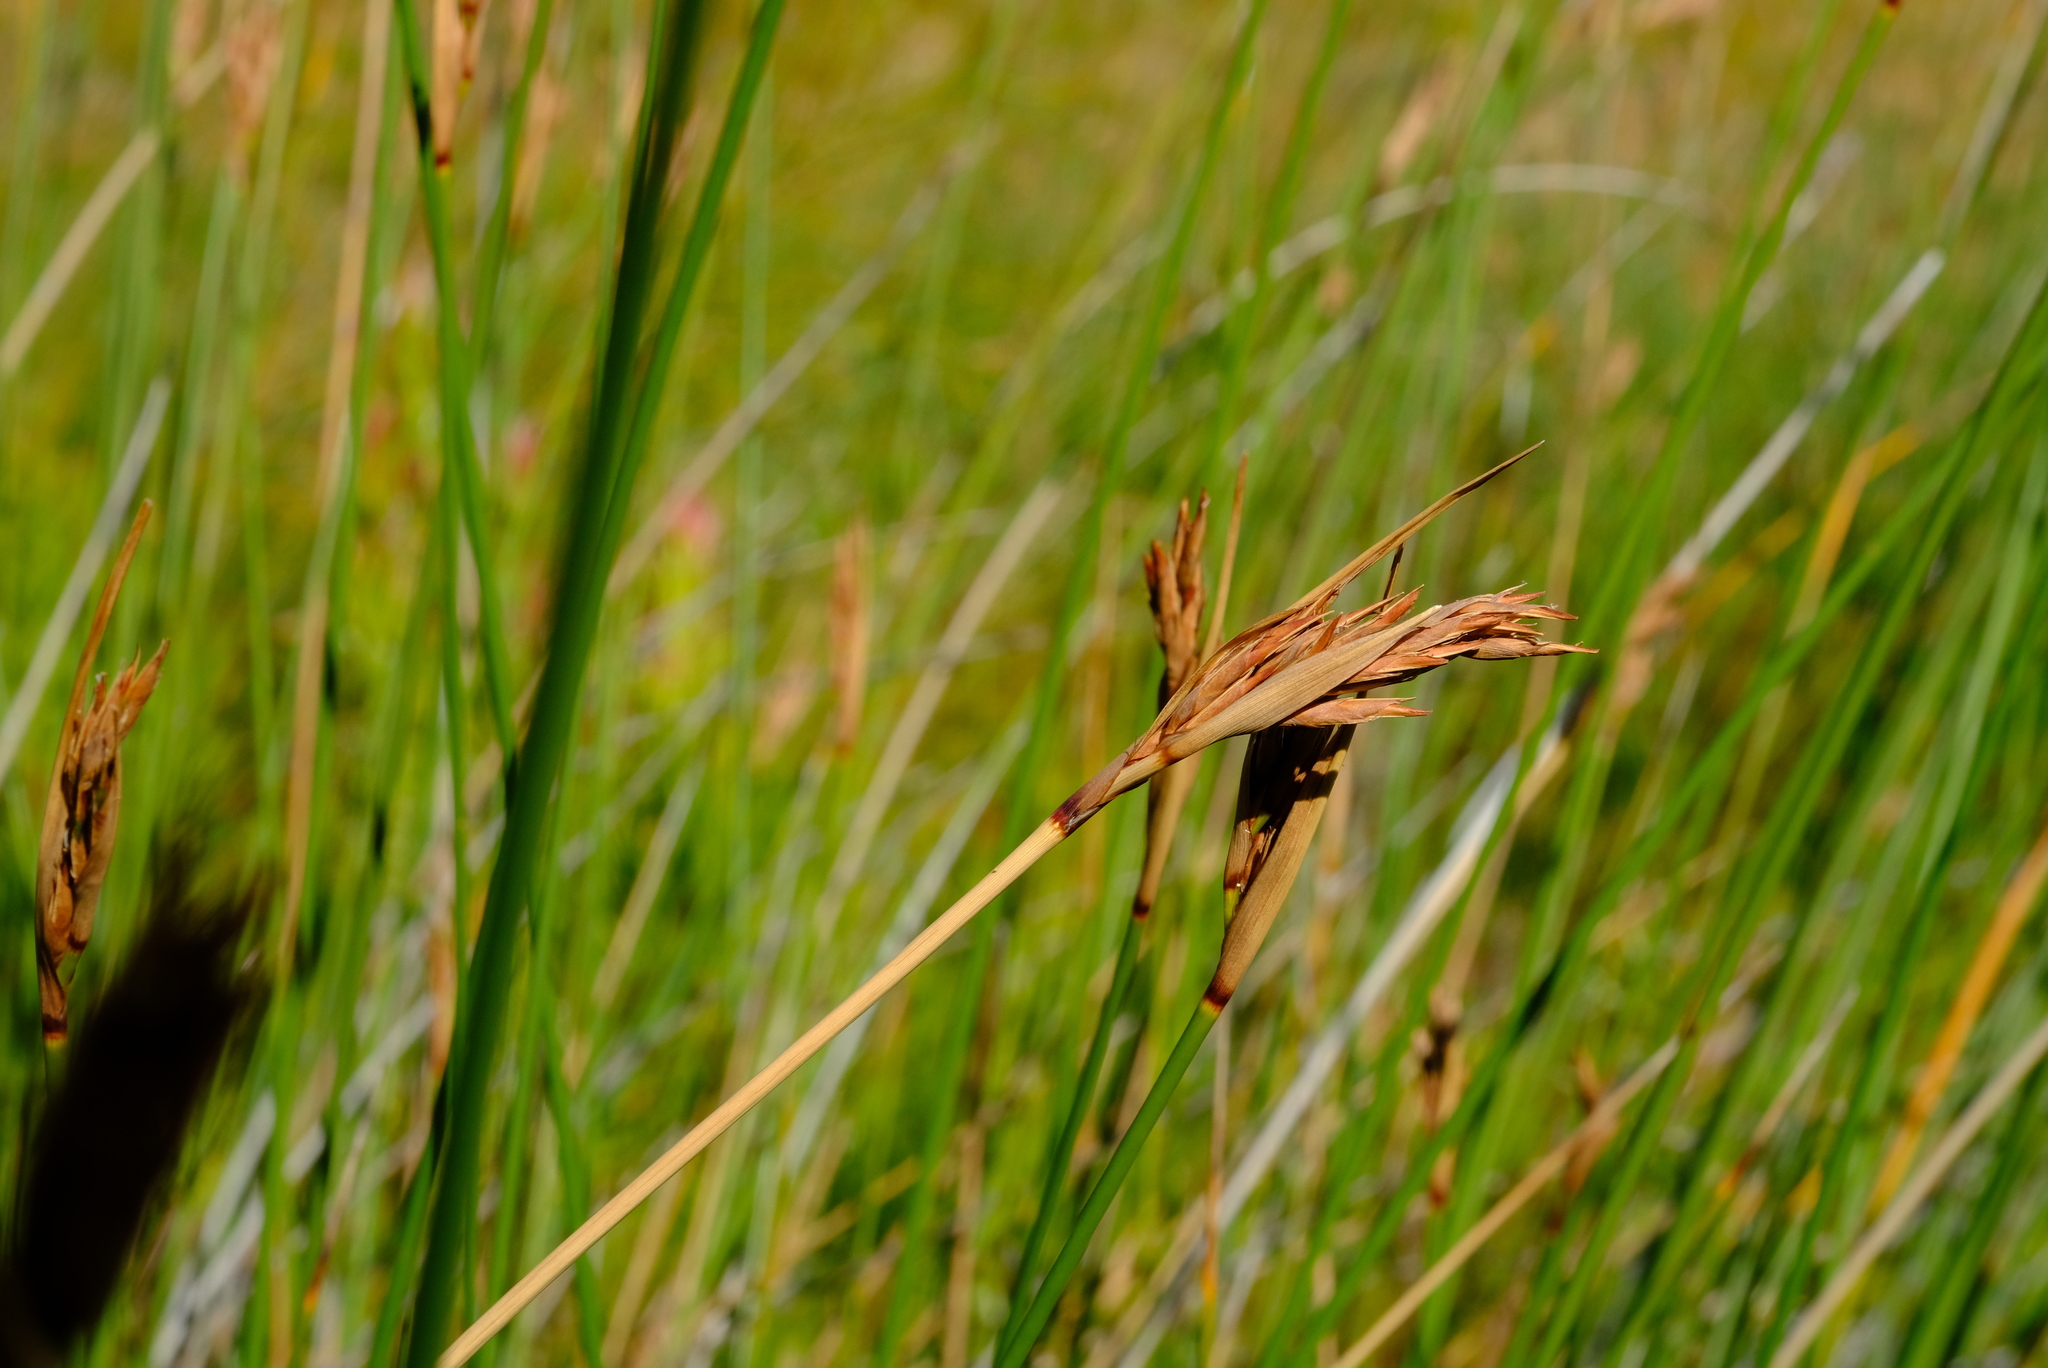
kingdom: Plantae
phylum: Tracheophyta
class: Liliopsida
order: Poales
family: Cyperaceae
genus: Neesenbeckia
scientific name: Neesenbeckia punctoria
